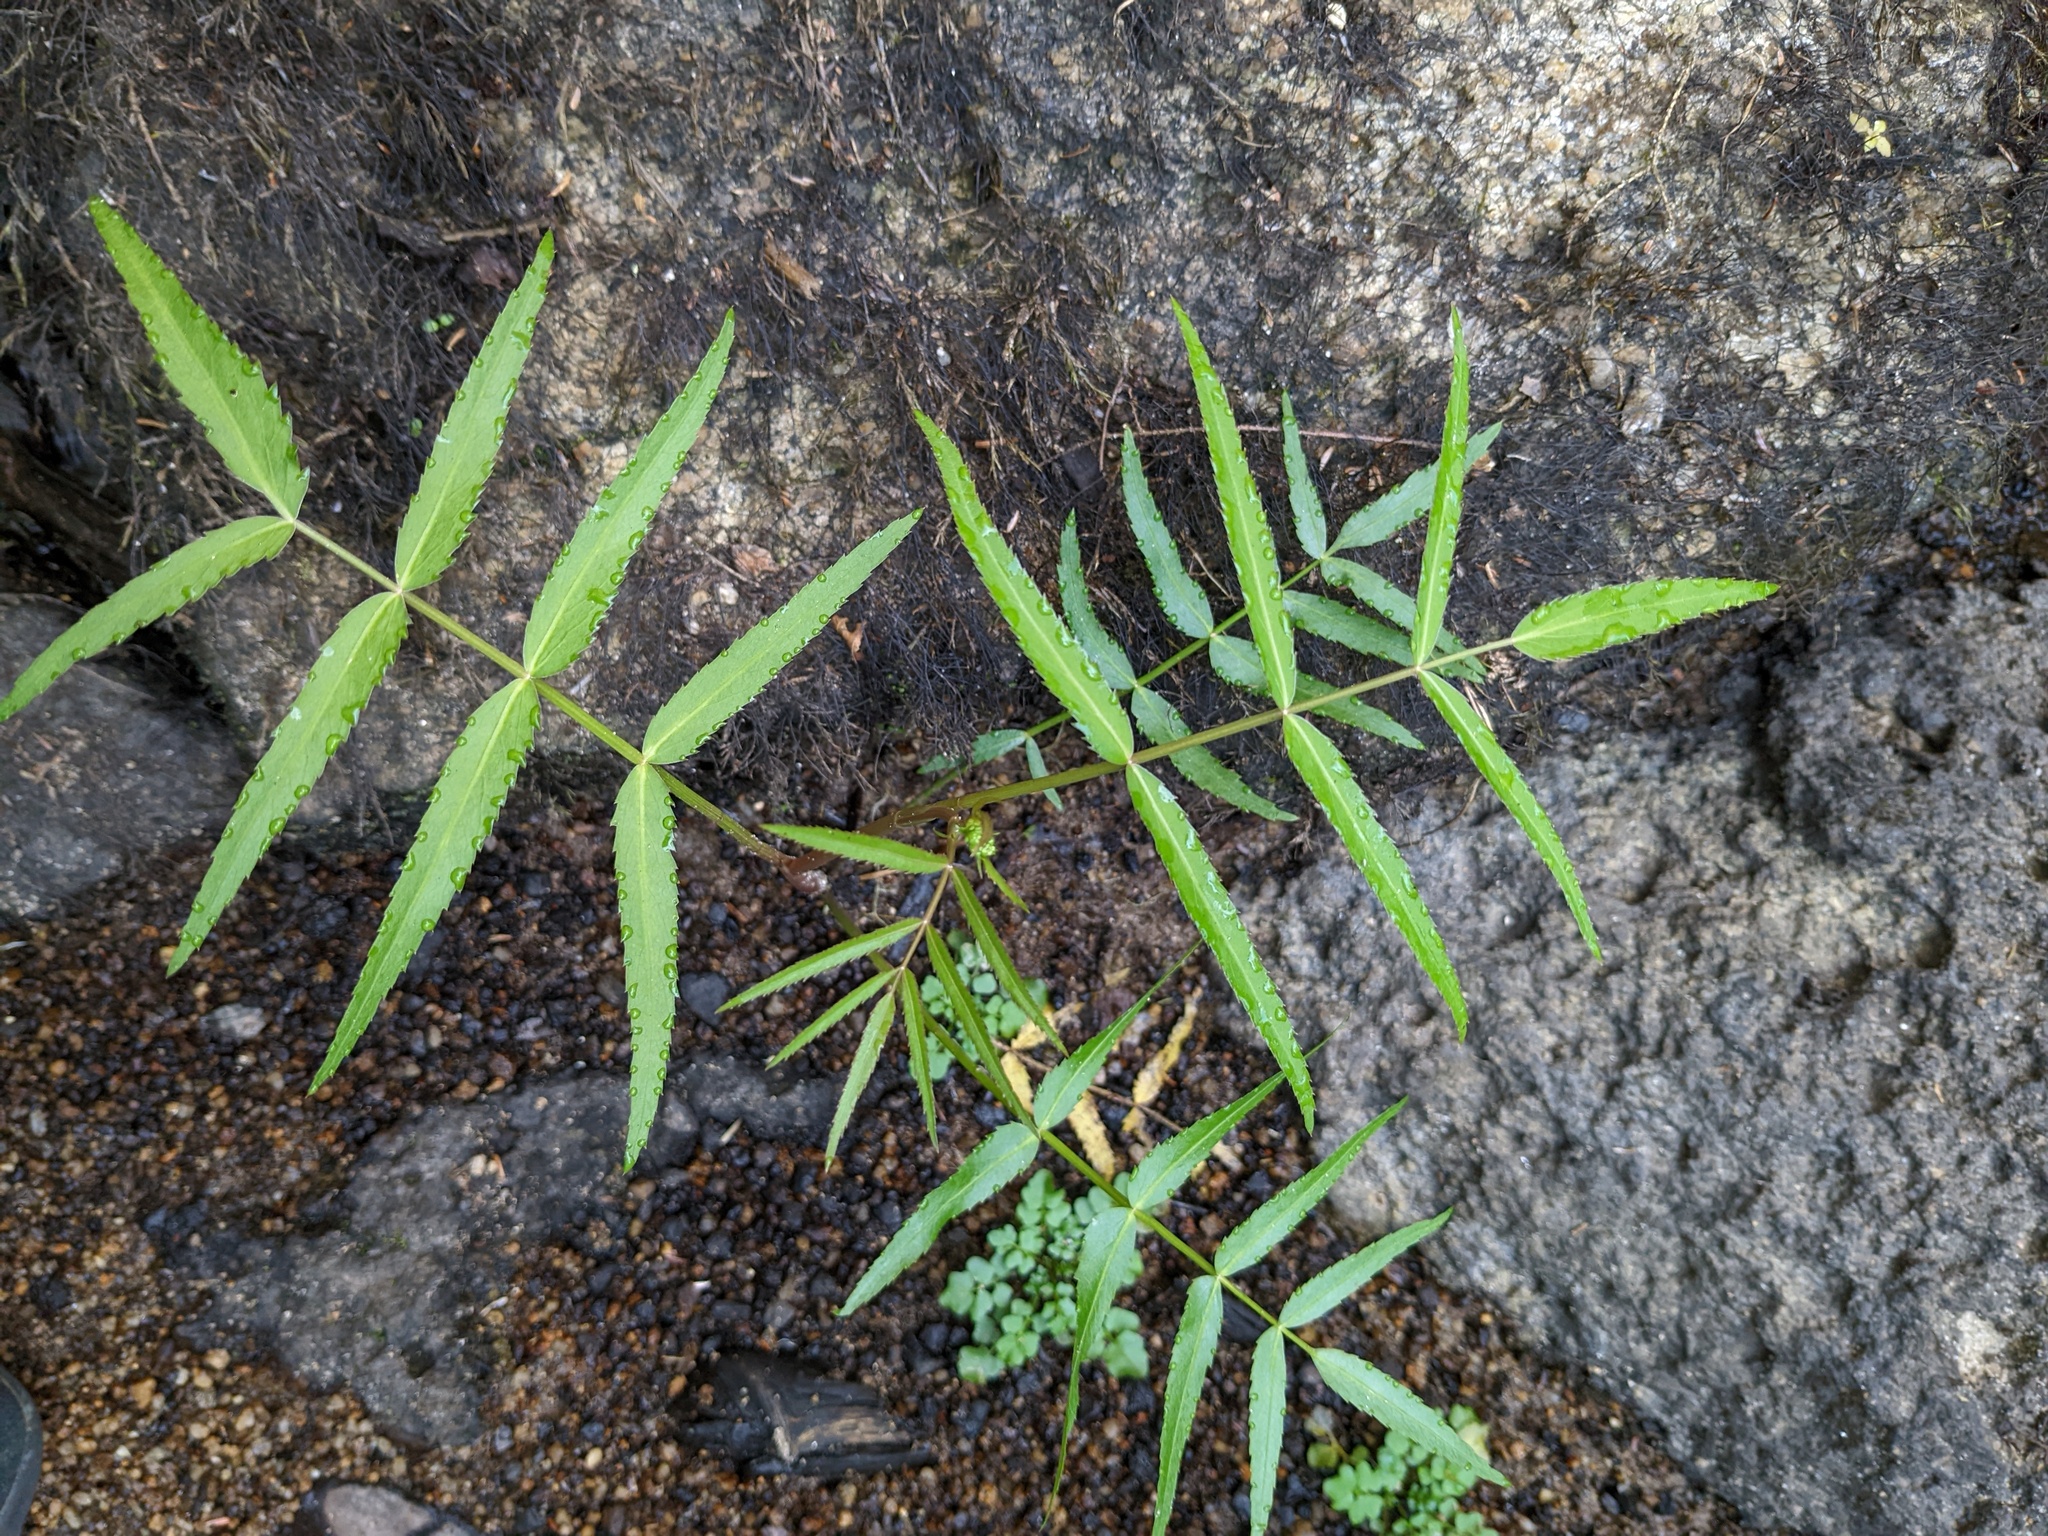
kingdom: Plantae
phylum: Tracheophyta
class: Magnoliopsida
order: Apiales
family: Apiaceae
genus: Sium
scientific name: Sium suave
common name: Hemlock water-parsnip
